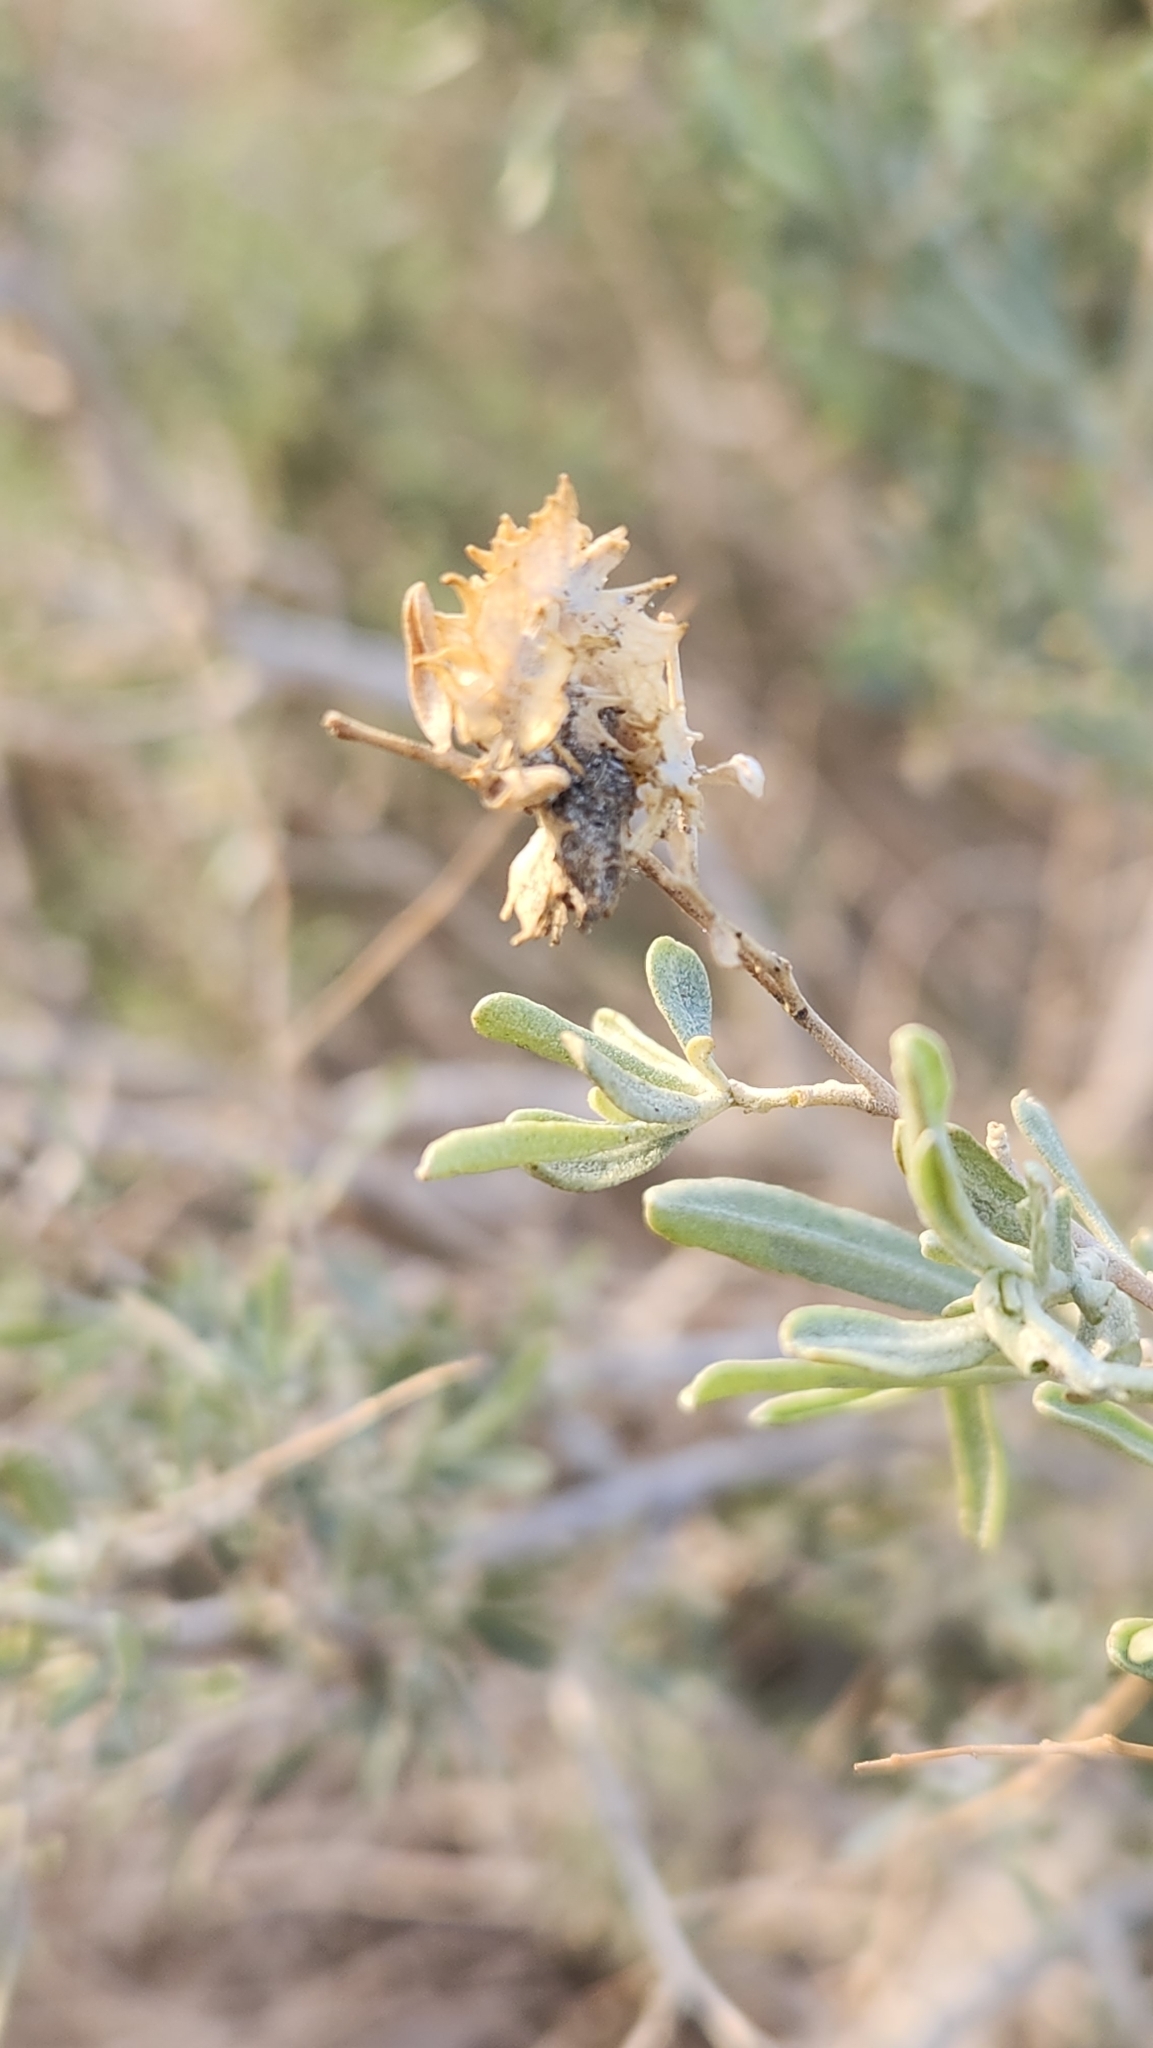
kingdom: Plantae
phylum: Tracheophyta
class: Magnoliopsida
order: Caryophyllales
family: Amaranthaceae
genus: Atriplex
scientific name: Atriplex canescens
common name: Four-wing saltbush
